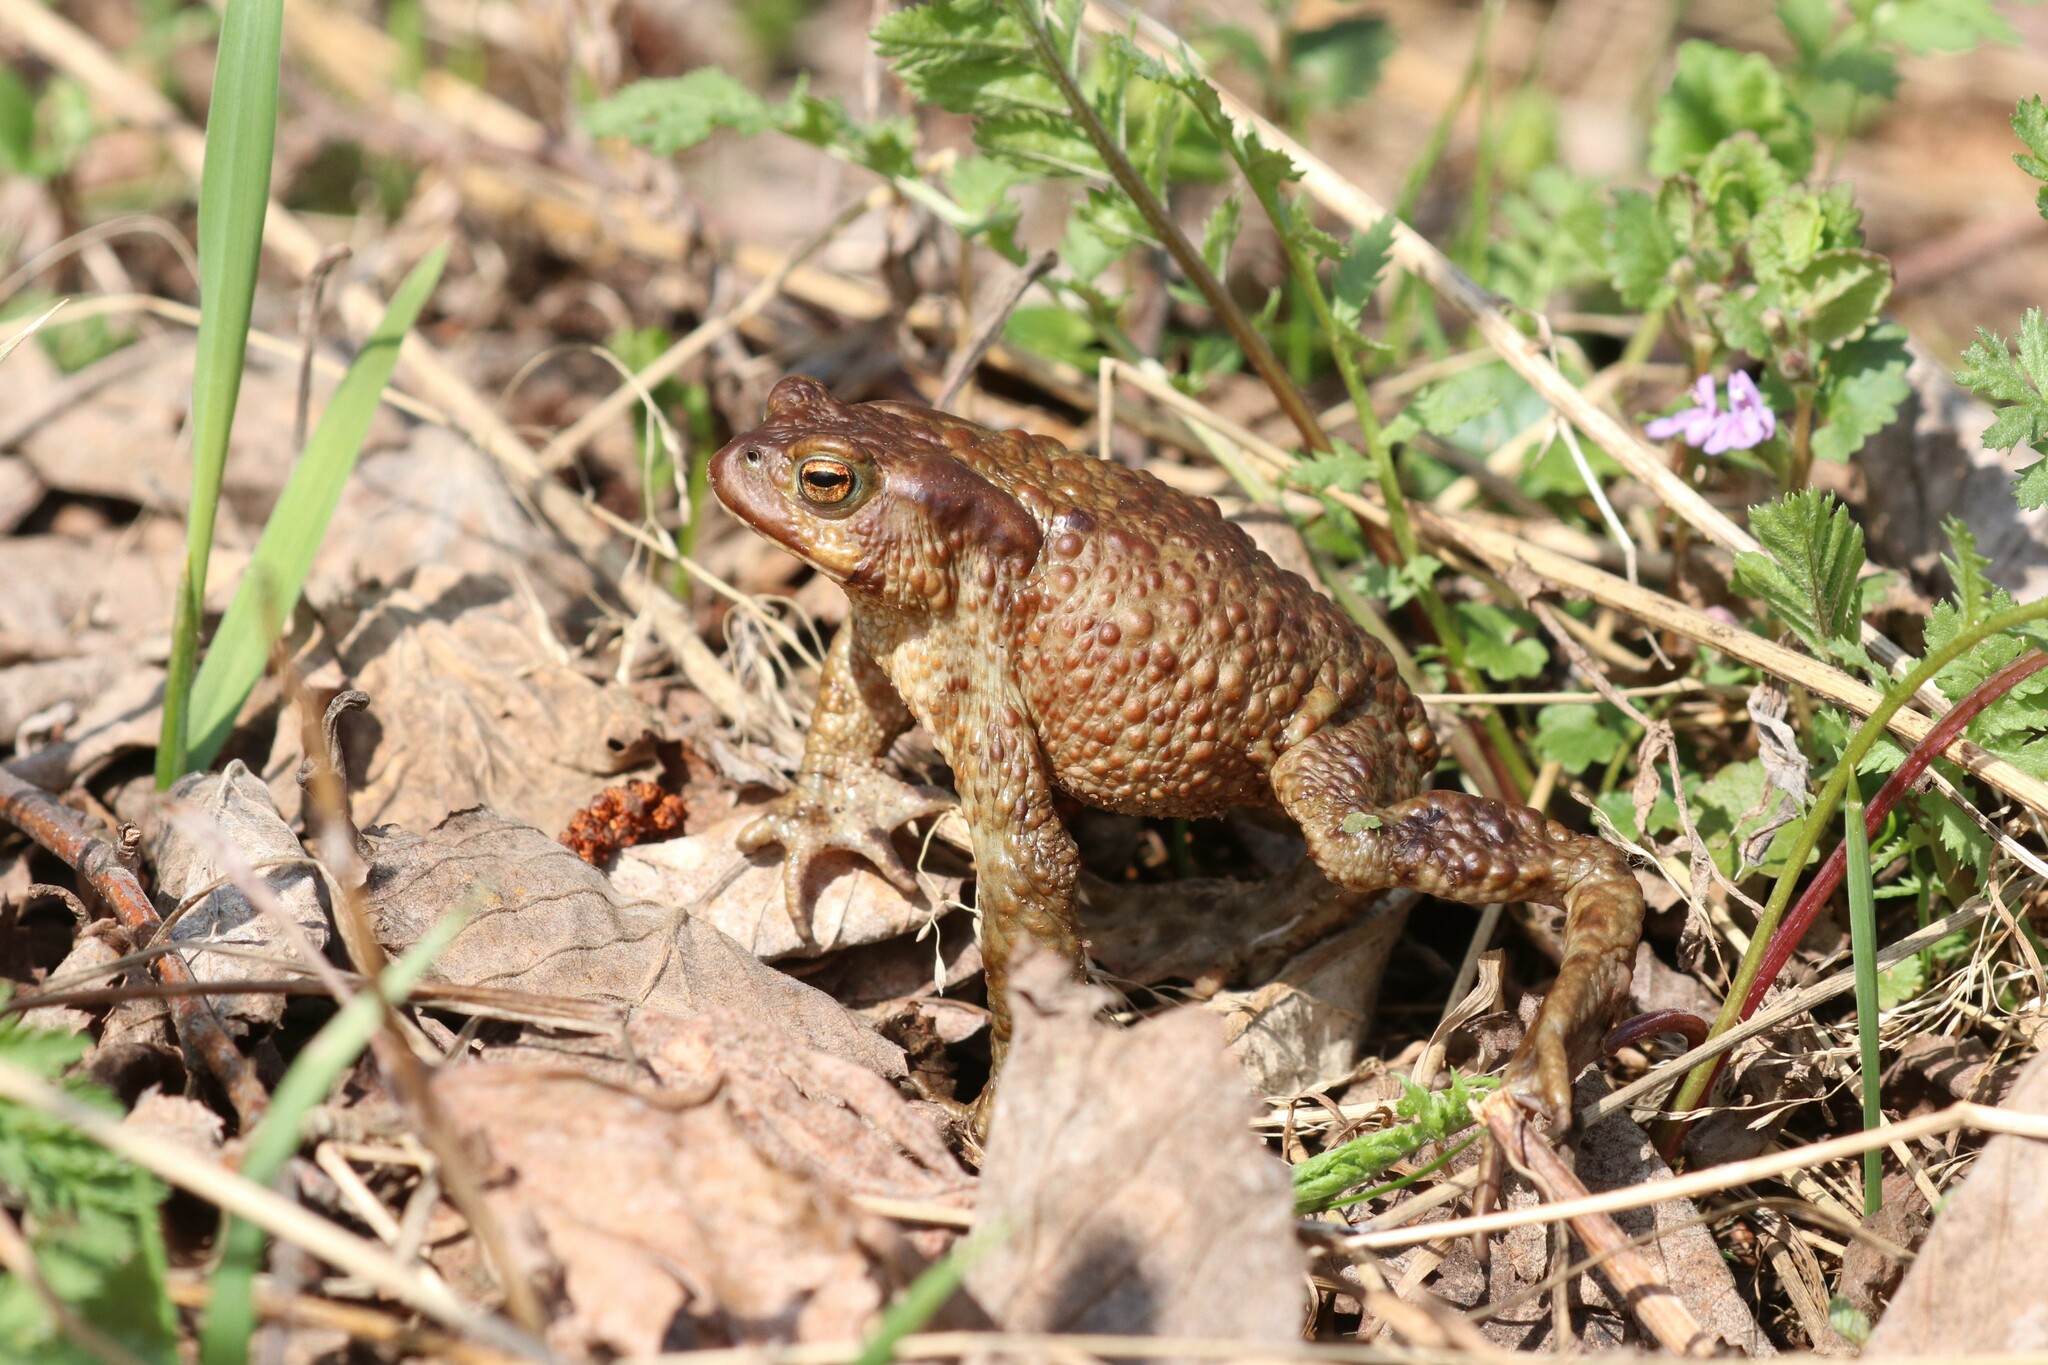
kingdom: Animalia
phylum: Chordata
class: Amphibia
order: Anura
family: Bufonidae
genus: Bufo
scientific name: Bufo bufo
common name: Common toad
